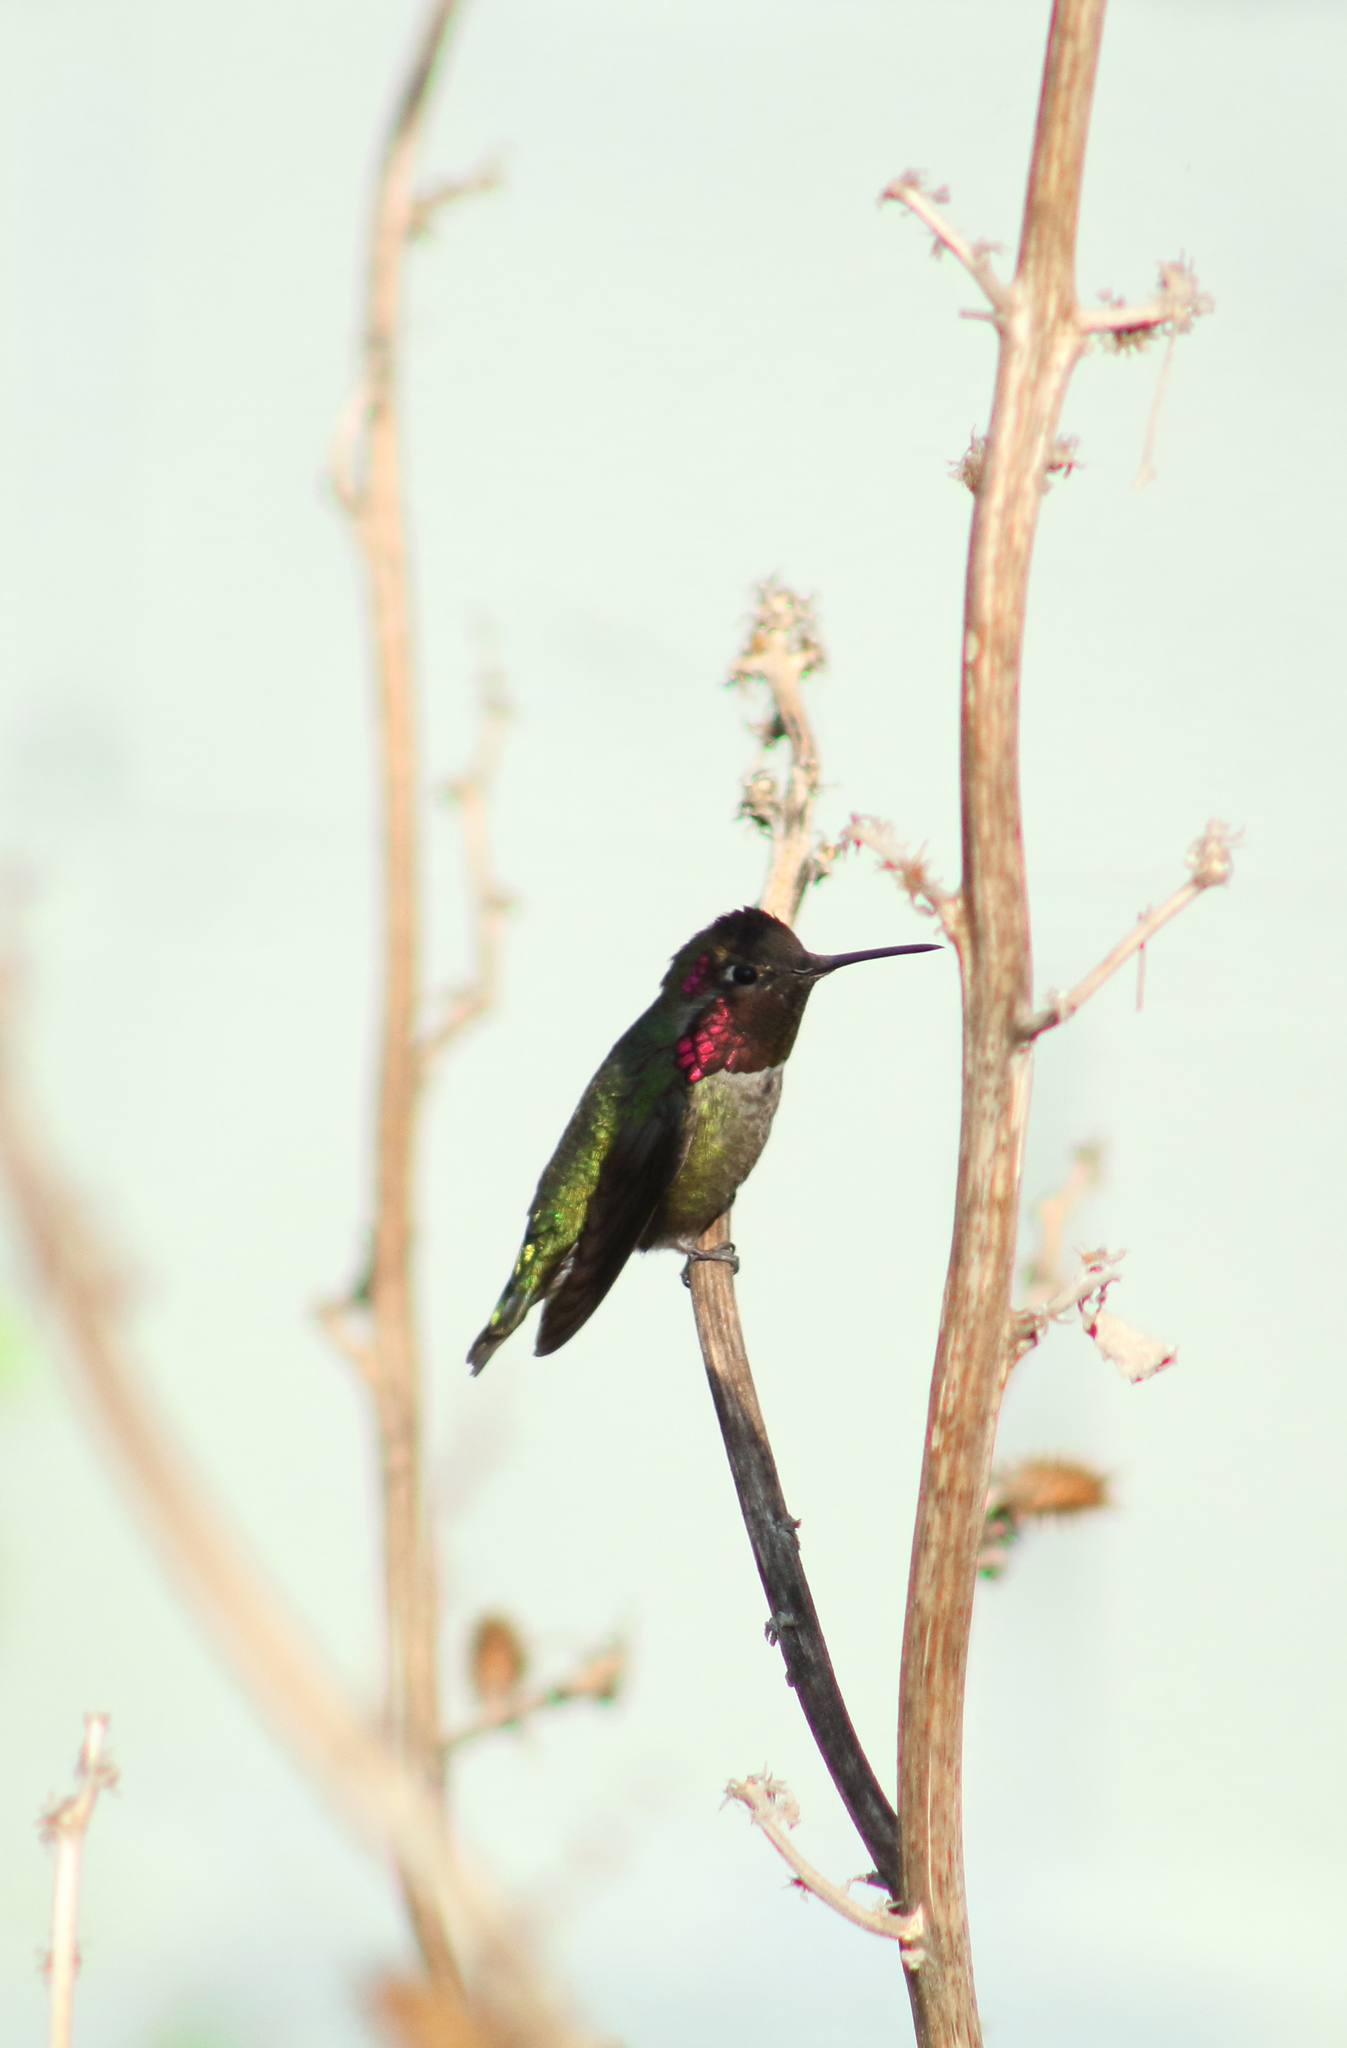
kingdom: Animalia
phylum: Chordata
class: Aves
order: Apodiformes
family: Trochilidae
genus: Calypte
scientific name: Calypte anna
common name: Anna's hummingbird
